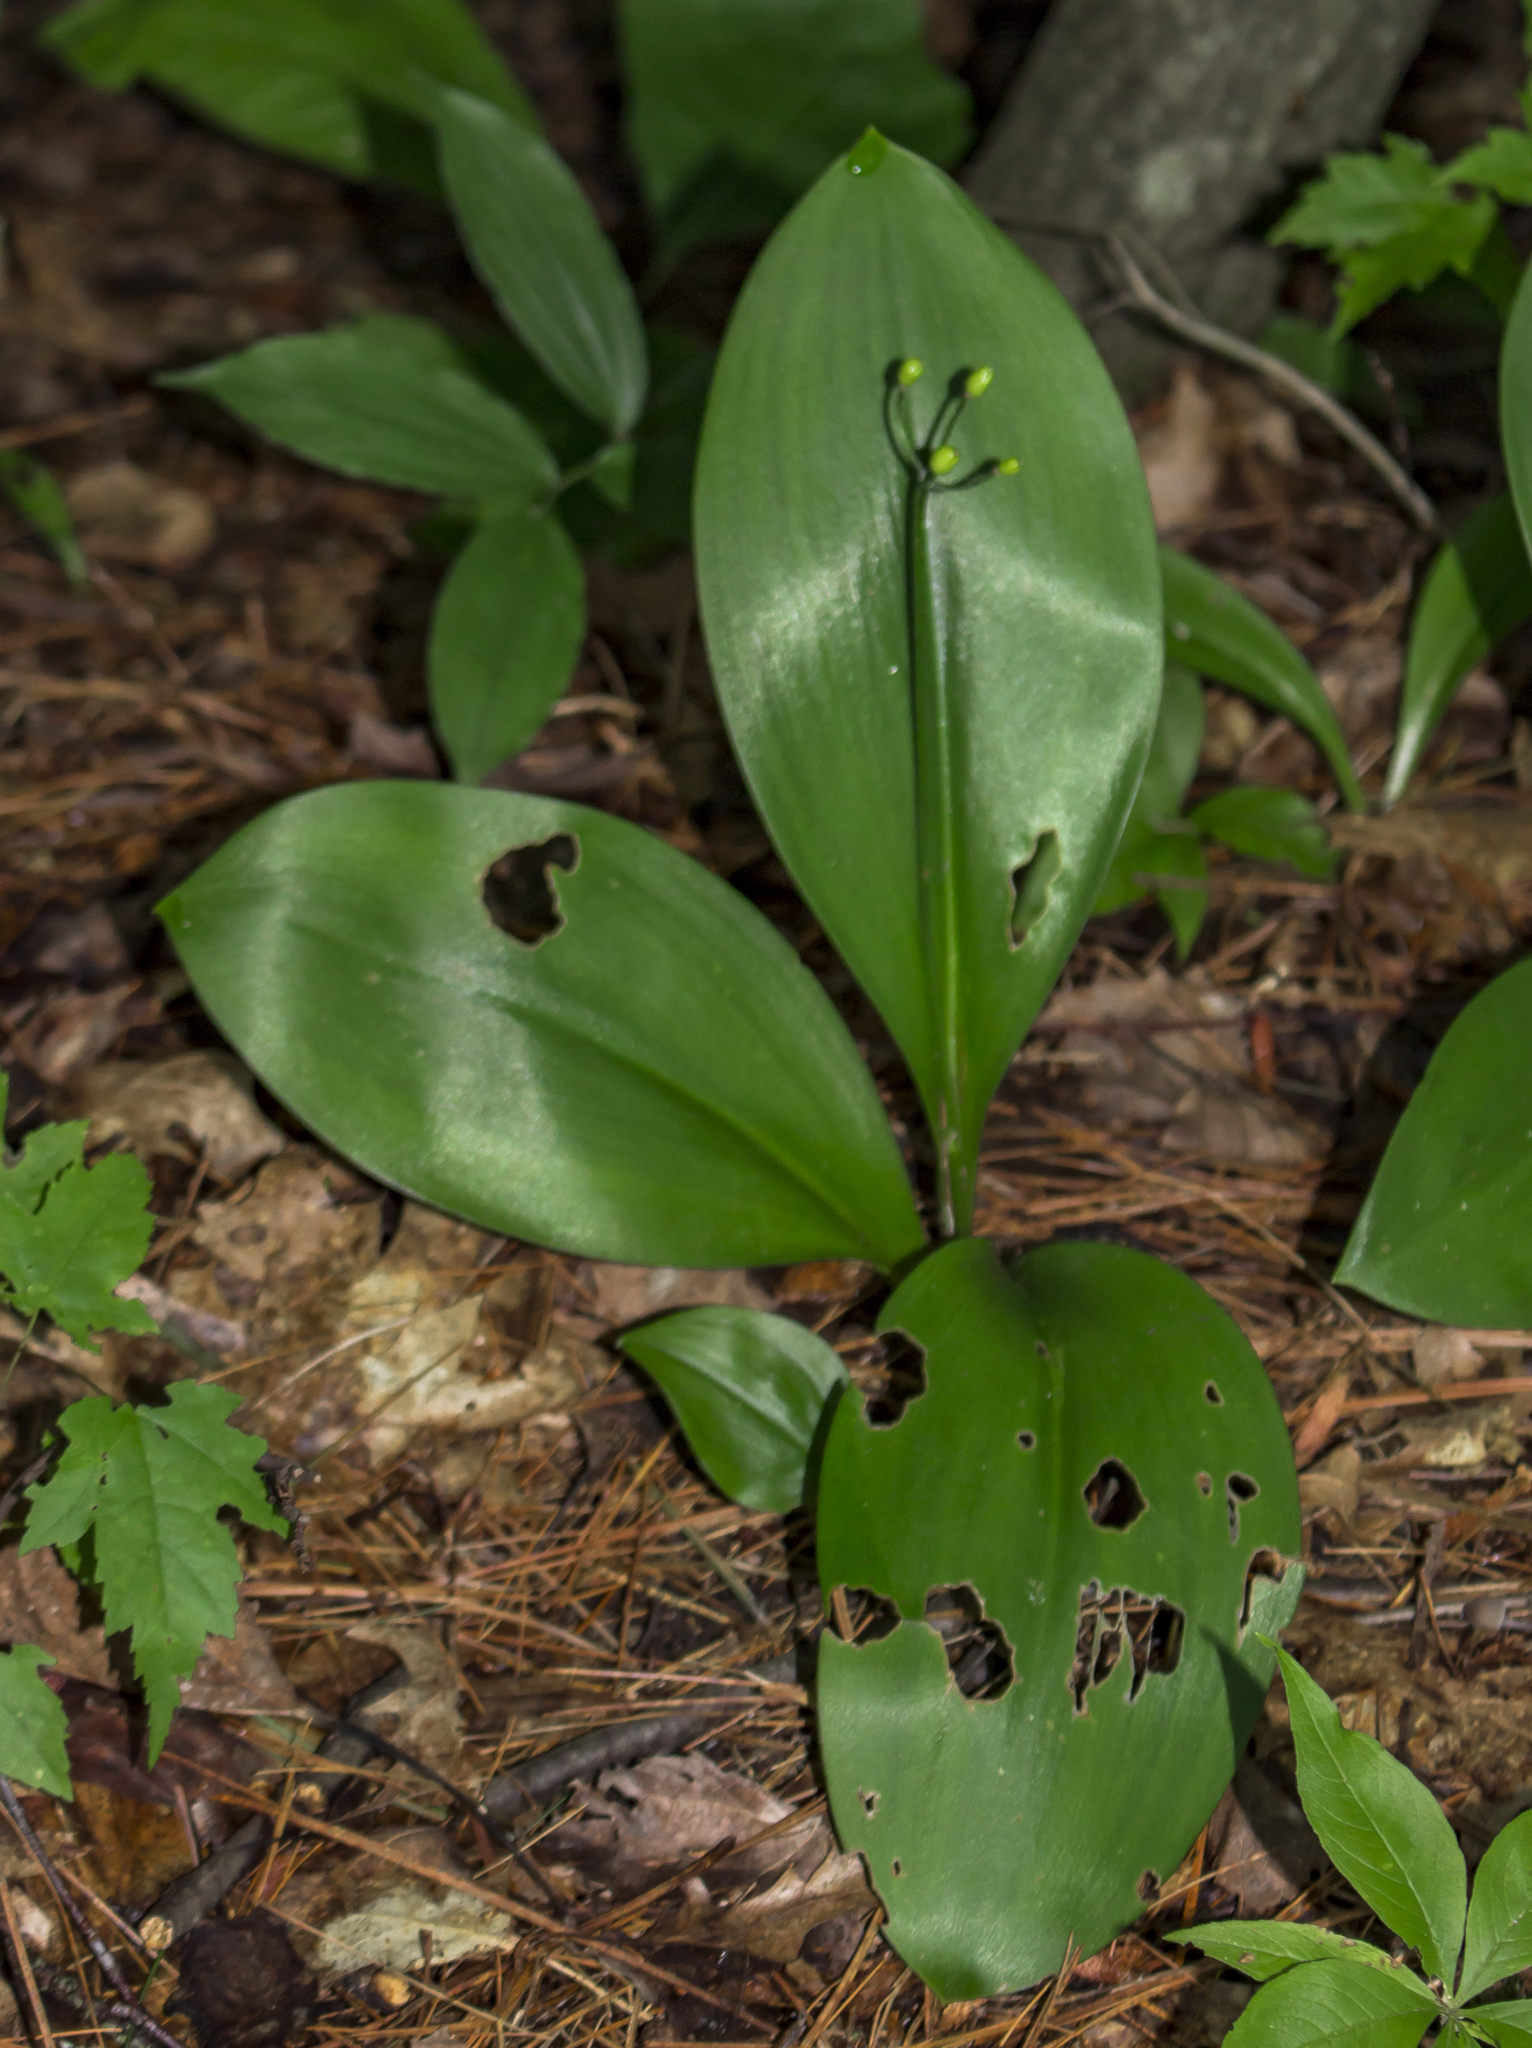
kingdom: Plantae
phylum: Tracheophyta
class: Liliopsida
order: Liliales
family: Liliaceae
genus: Clintonia
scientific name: Clintonia borealis
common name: Yellow clintonia
